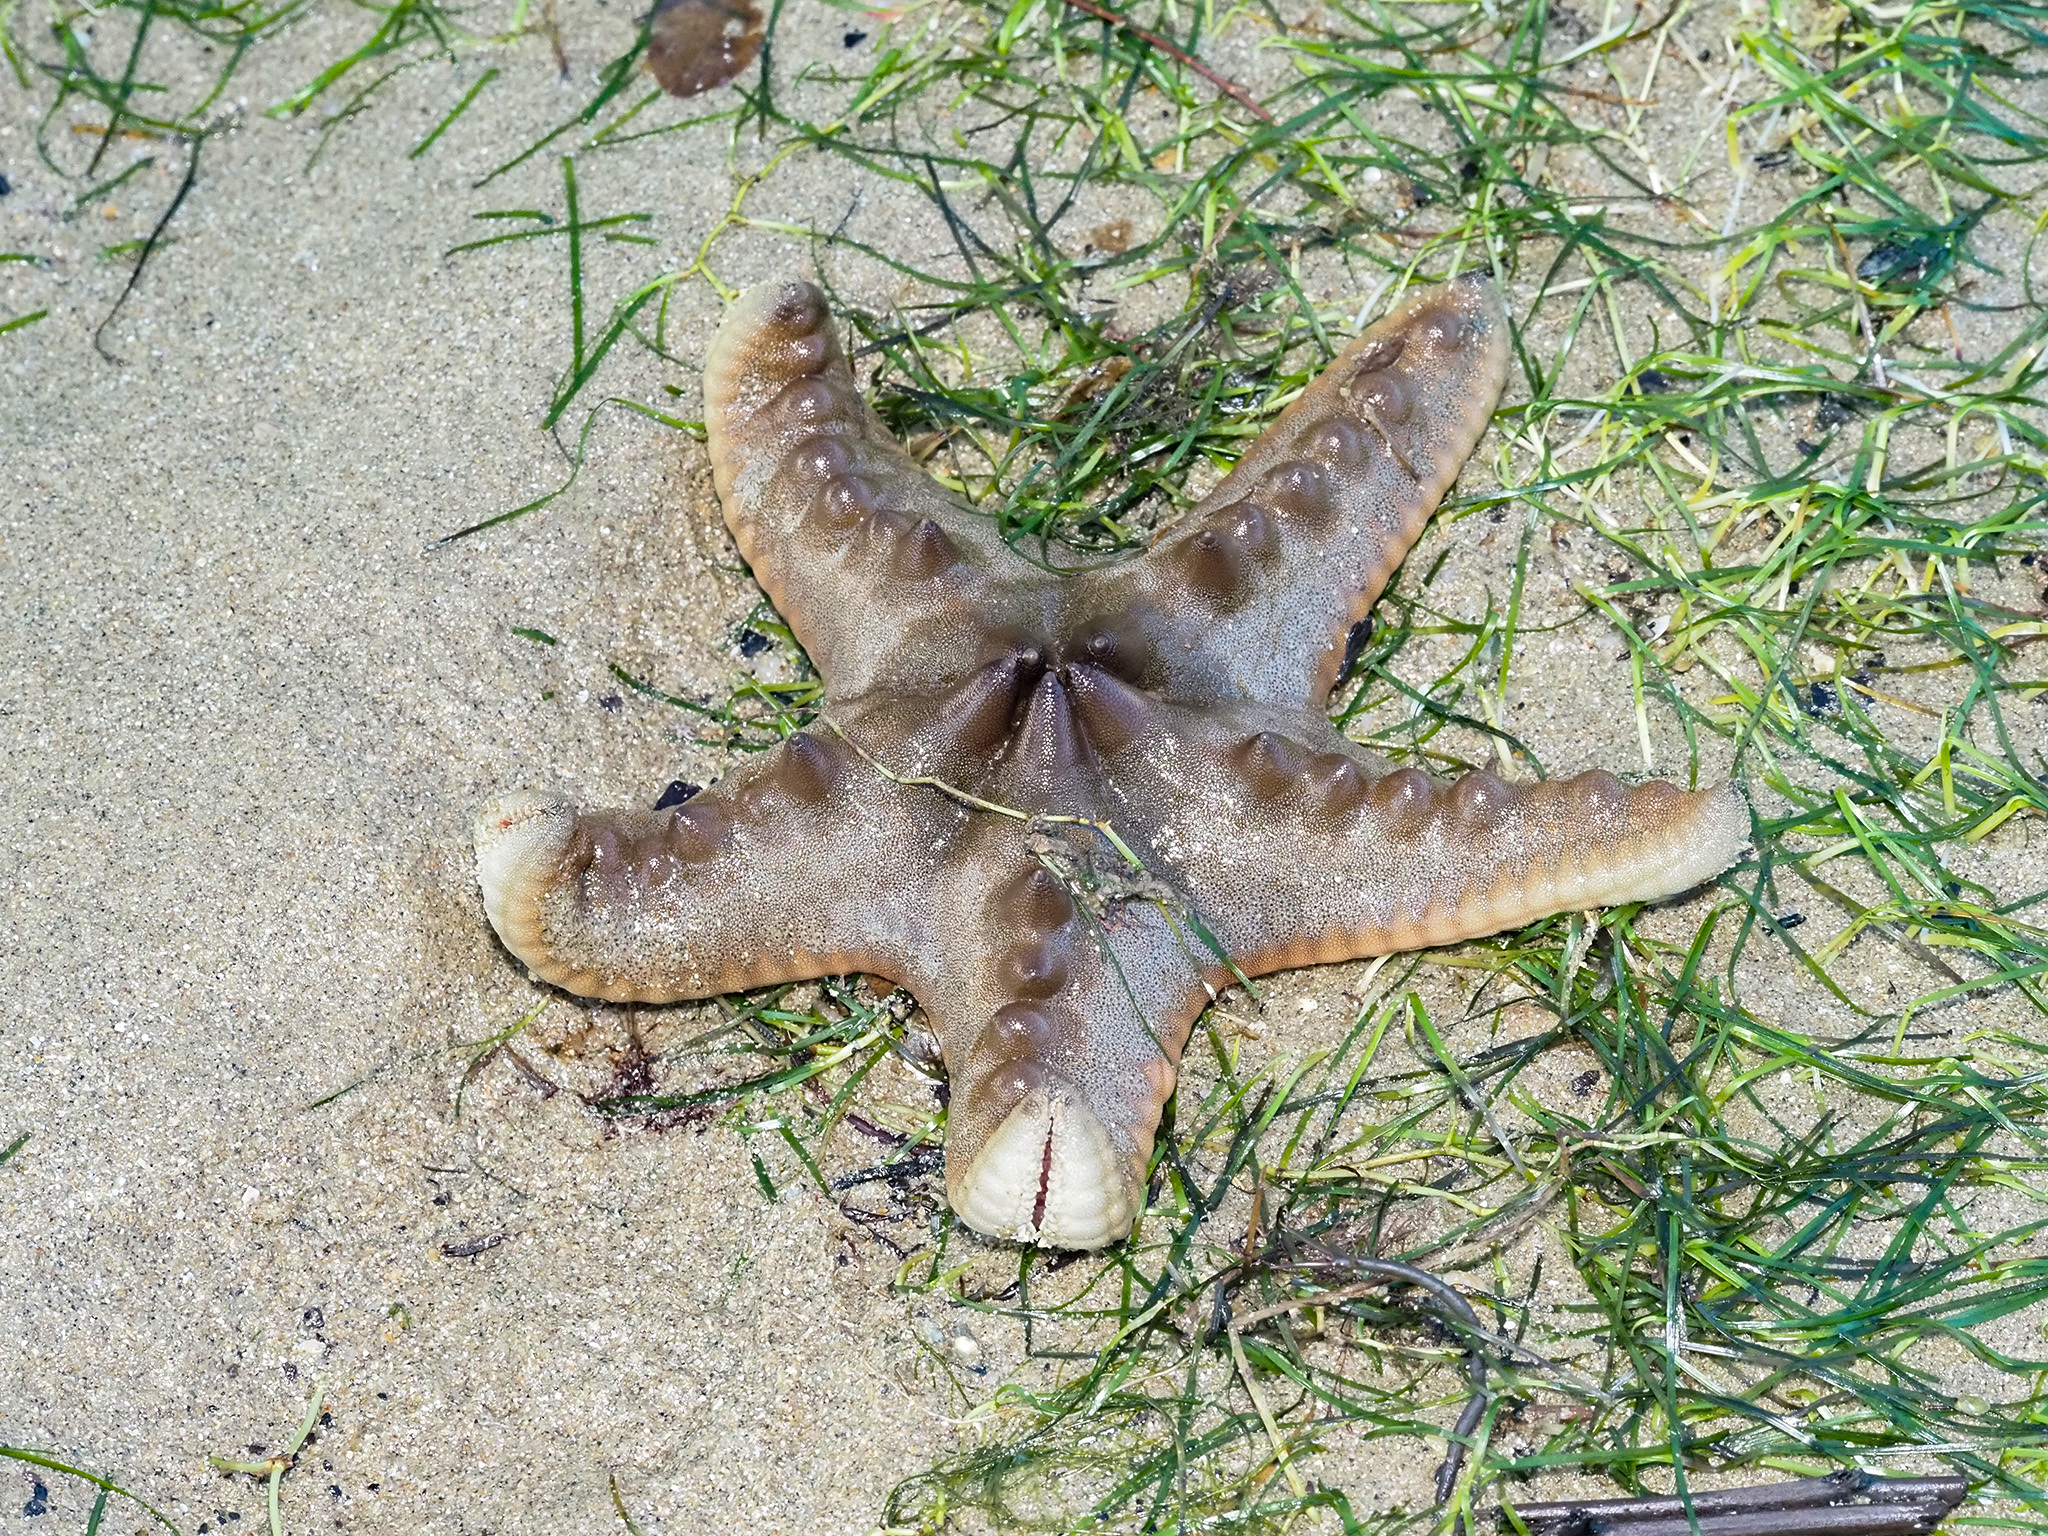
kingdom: Animalia
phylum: Echinodermata
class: Asteroidea
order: Valvatida
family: Oreasteridae
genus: Protoreaster
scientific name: Protoreaster nodosus
